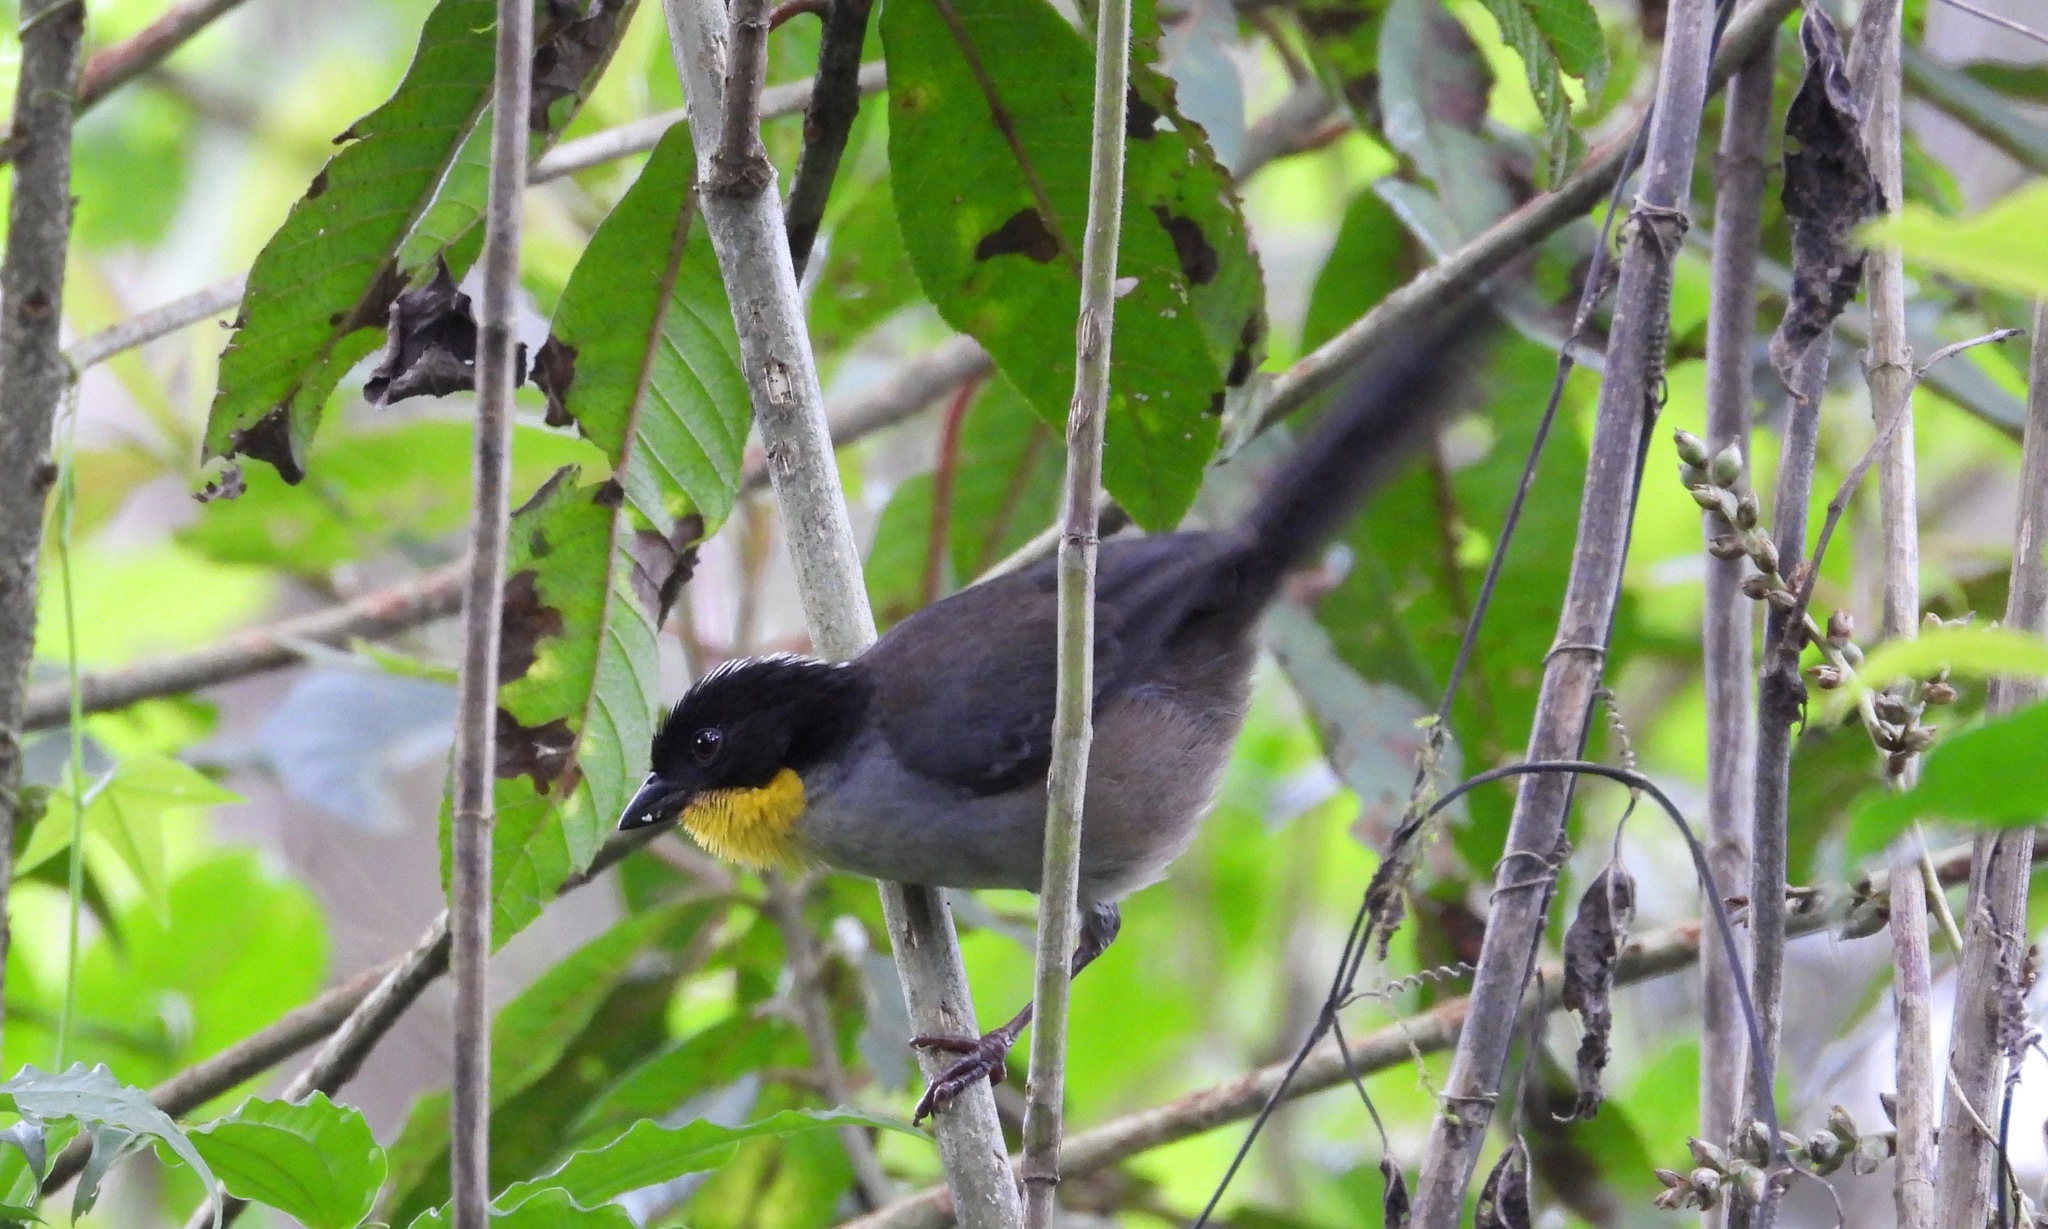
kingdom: Animalia
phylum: Chordata
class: Aves
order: Passeriformes
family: Passerellidae
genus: Atlapetes
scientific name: Atlapetes albinucha
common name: White-naped brush-finch
